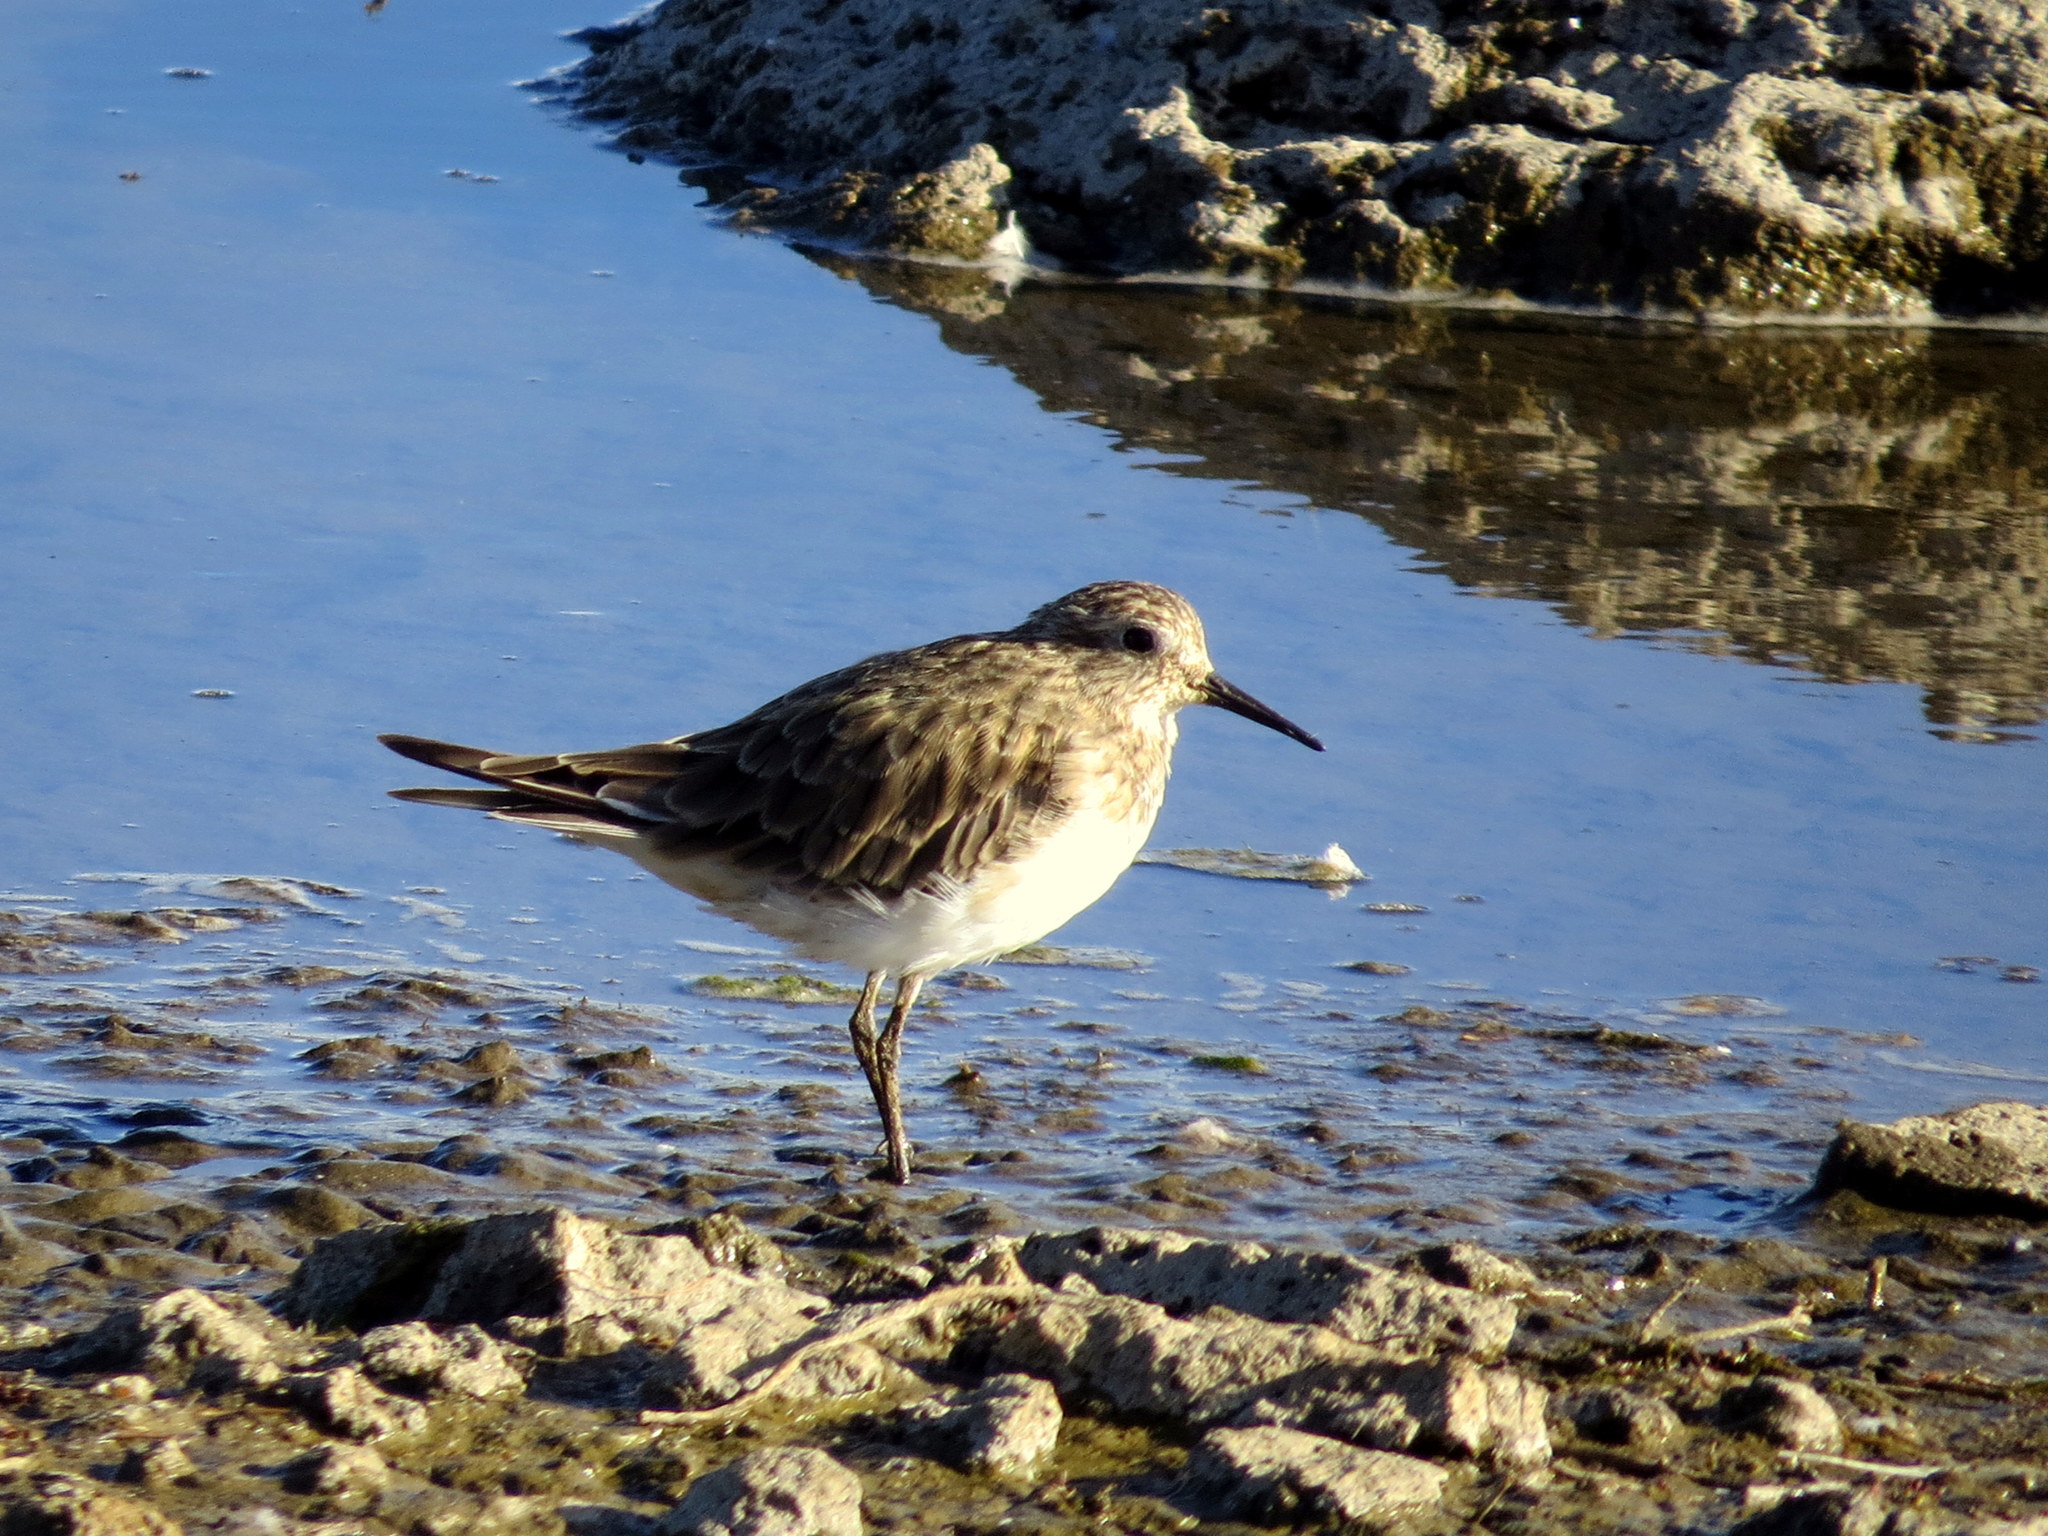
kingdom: Animalia
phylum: Chordata
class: Aves
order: Charadriiformes
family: Scolopacidae
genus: Calidris
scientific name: Calidris bairdii
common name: Baird's sandpiper
